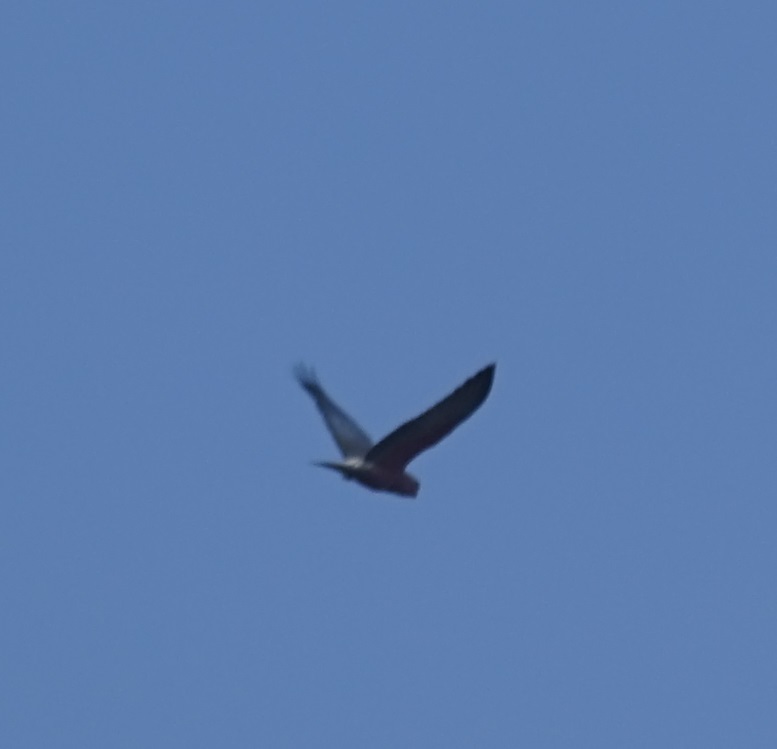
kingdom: Animalia
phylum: Chordata
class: Aves
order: Psittaciformes
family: Psittacidae
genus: Eolophus
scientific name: Eolophus roseicapilla
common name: Galah
